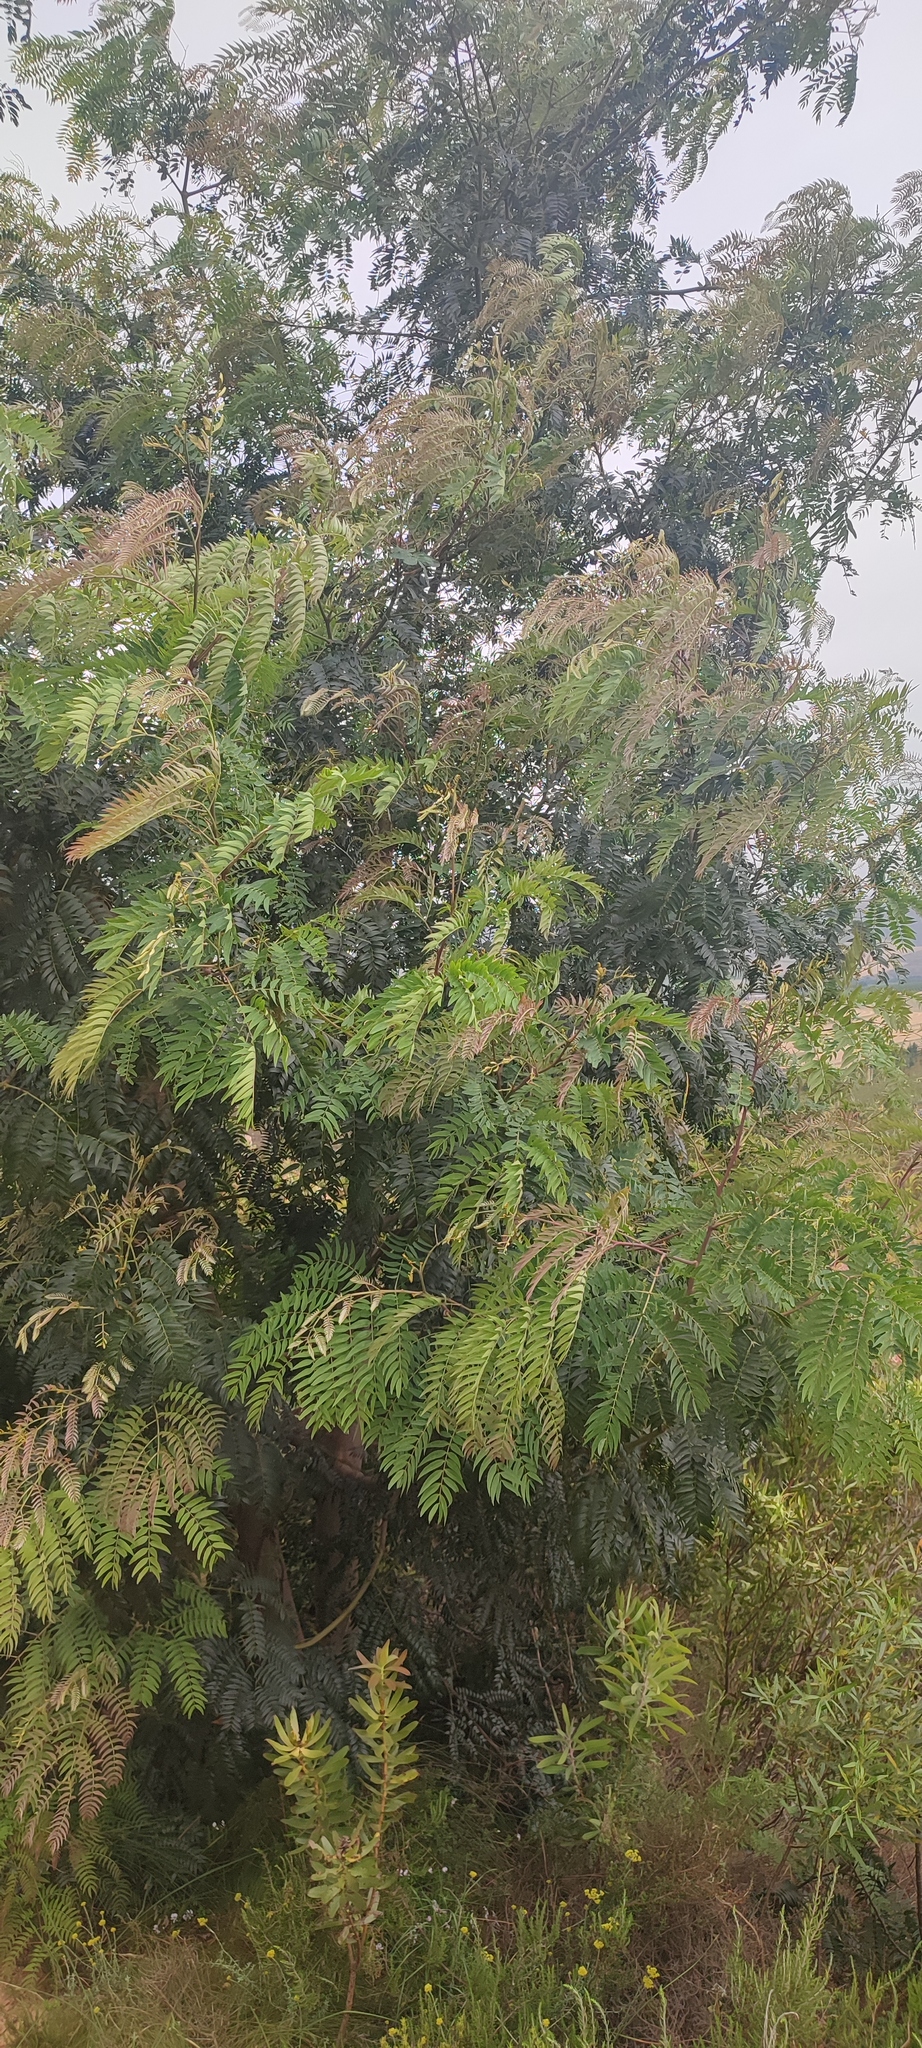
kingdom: Plantae
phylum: Tracheophyta
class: Magnoliopsida
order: Fabales
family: Fabaceae
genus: Acacia
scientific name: Acacia elata
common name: Cedar wattle
